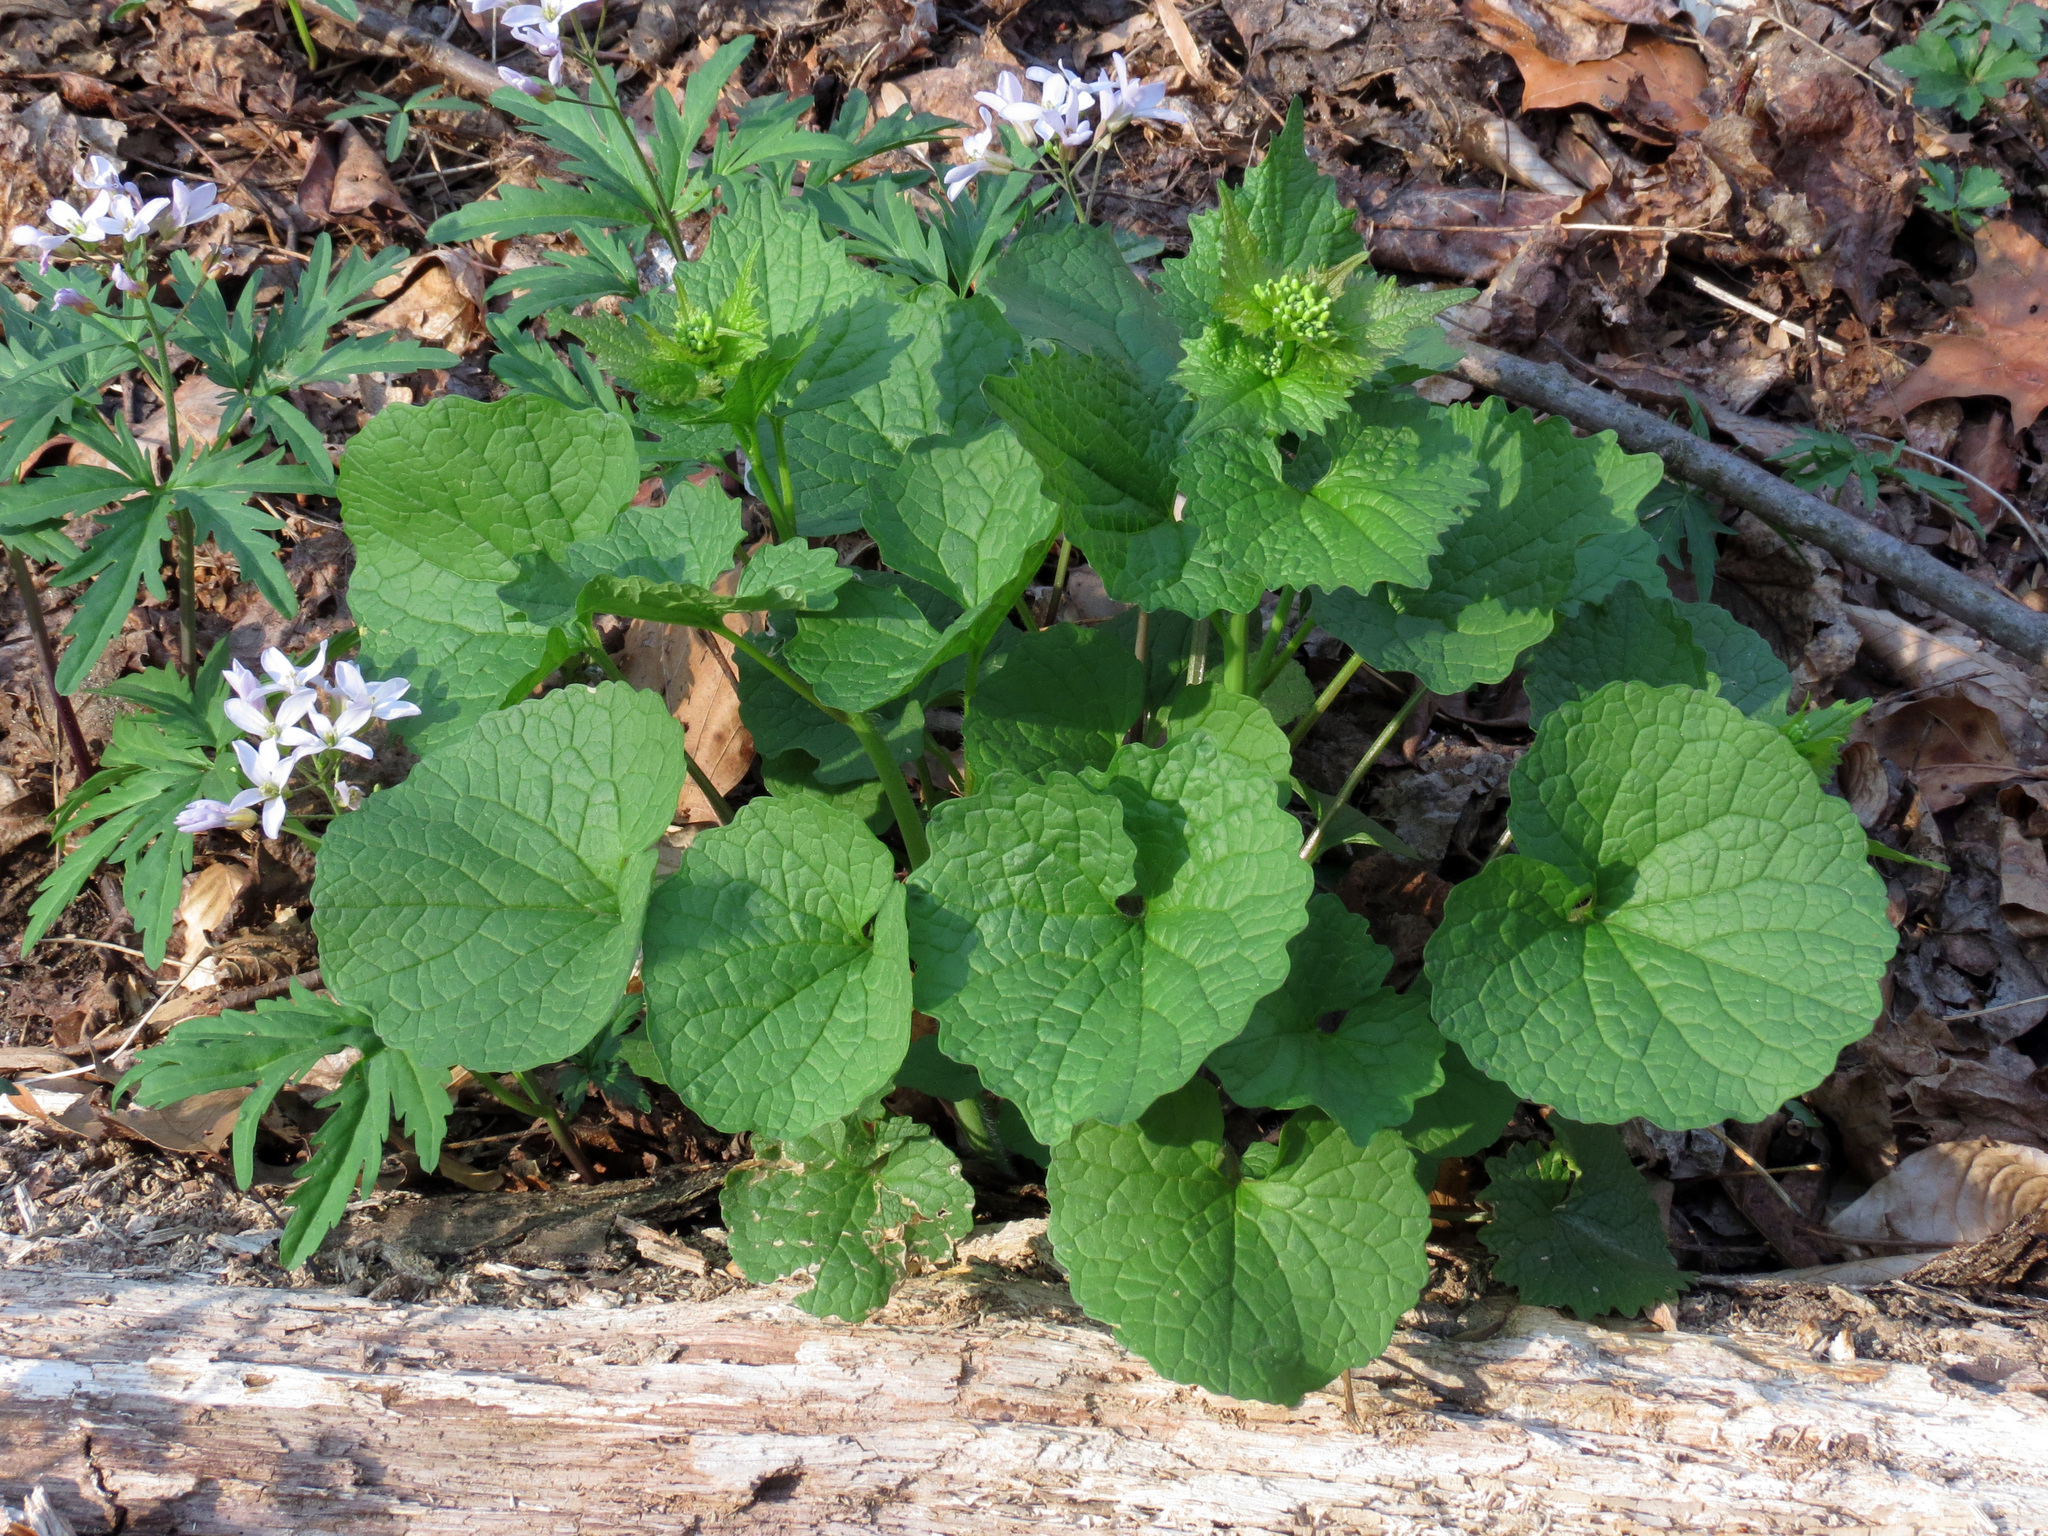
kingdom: Plantae
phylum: Tracheophyta
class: Magnoliopsida
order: Brassicales
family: Brassicaceae
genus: Alliaria
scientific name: Alliaria petiolata
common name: Garlic mustard
